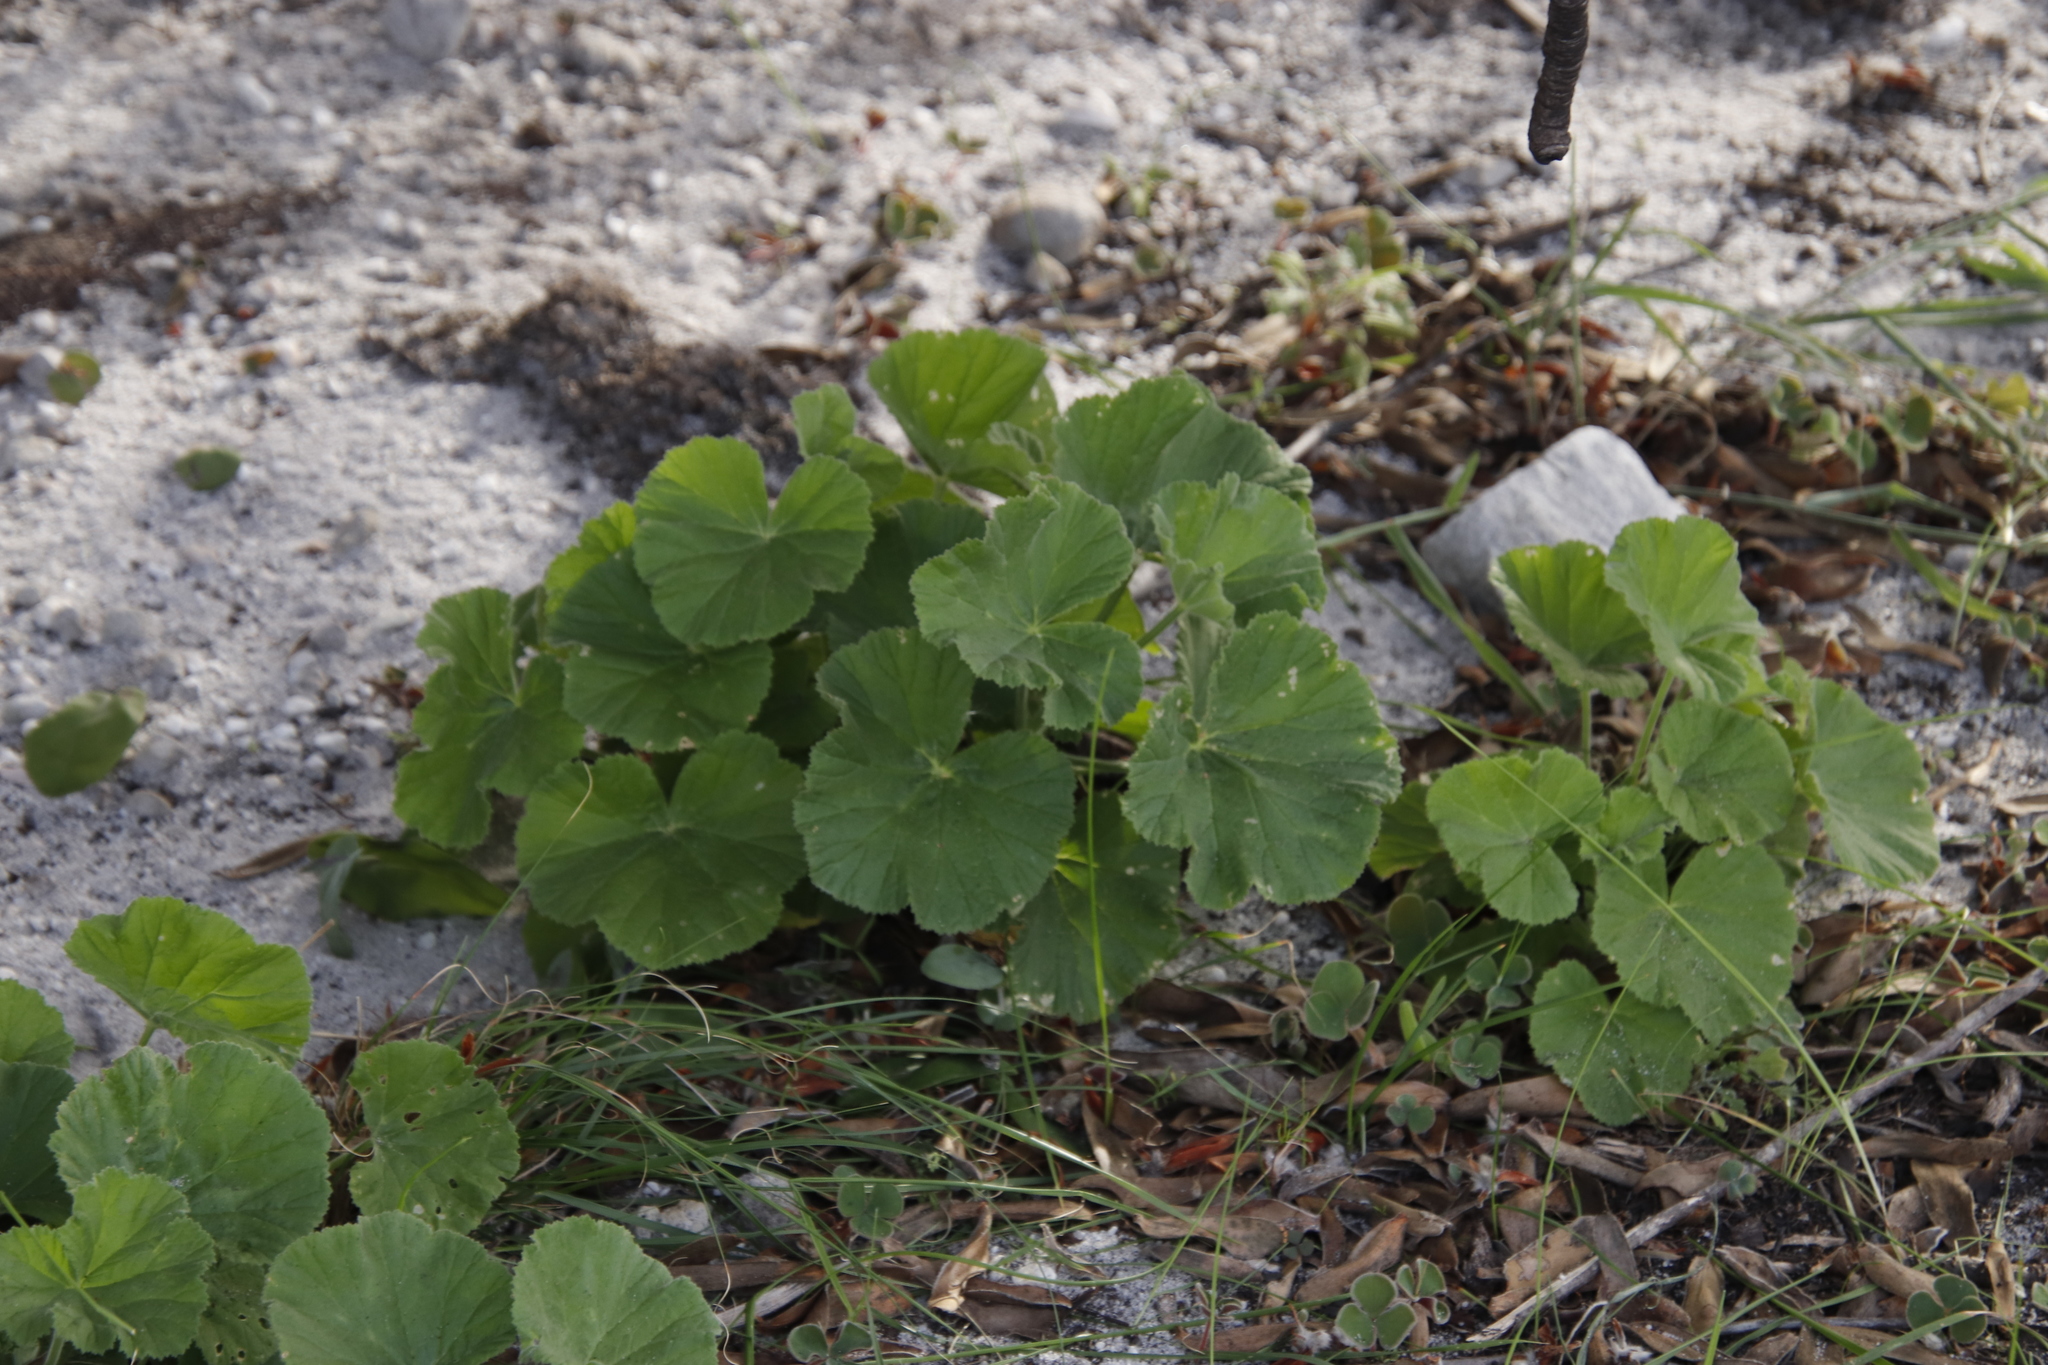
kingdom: Plantae
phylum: Tracheophyta
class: Magnoliopsida
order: Geraniales
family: Geraniaceae
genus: Pelargonium
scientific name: Pelargonium cucullatum
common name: Tree pelargonium
